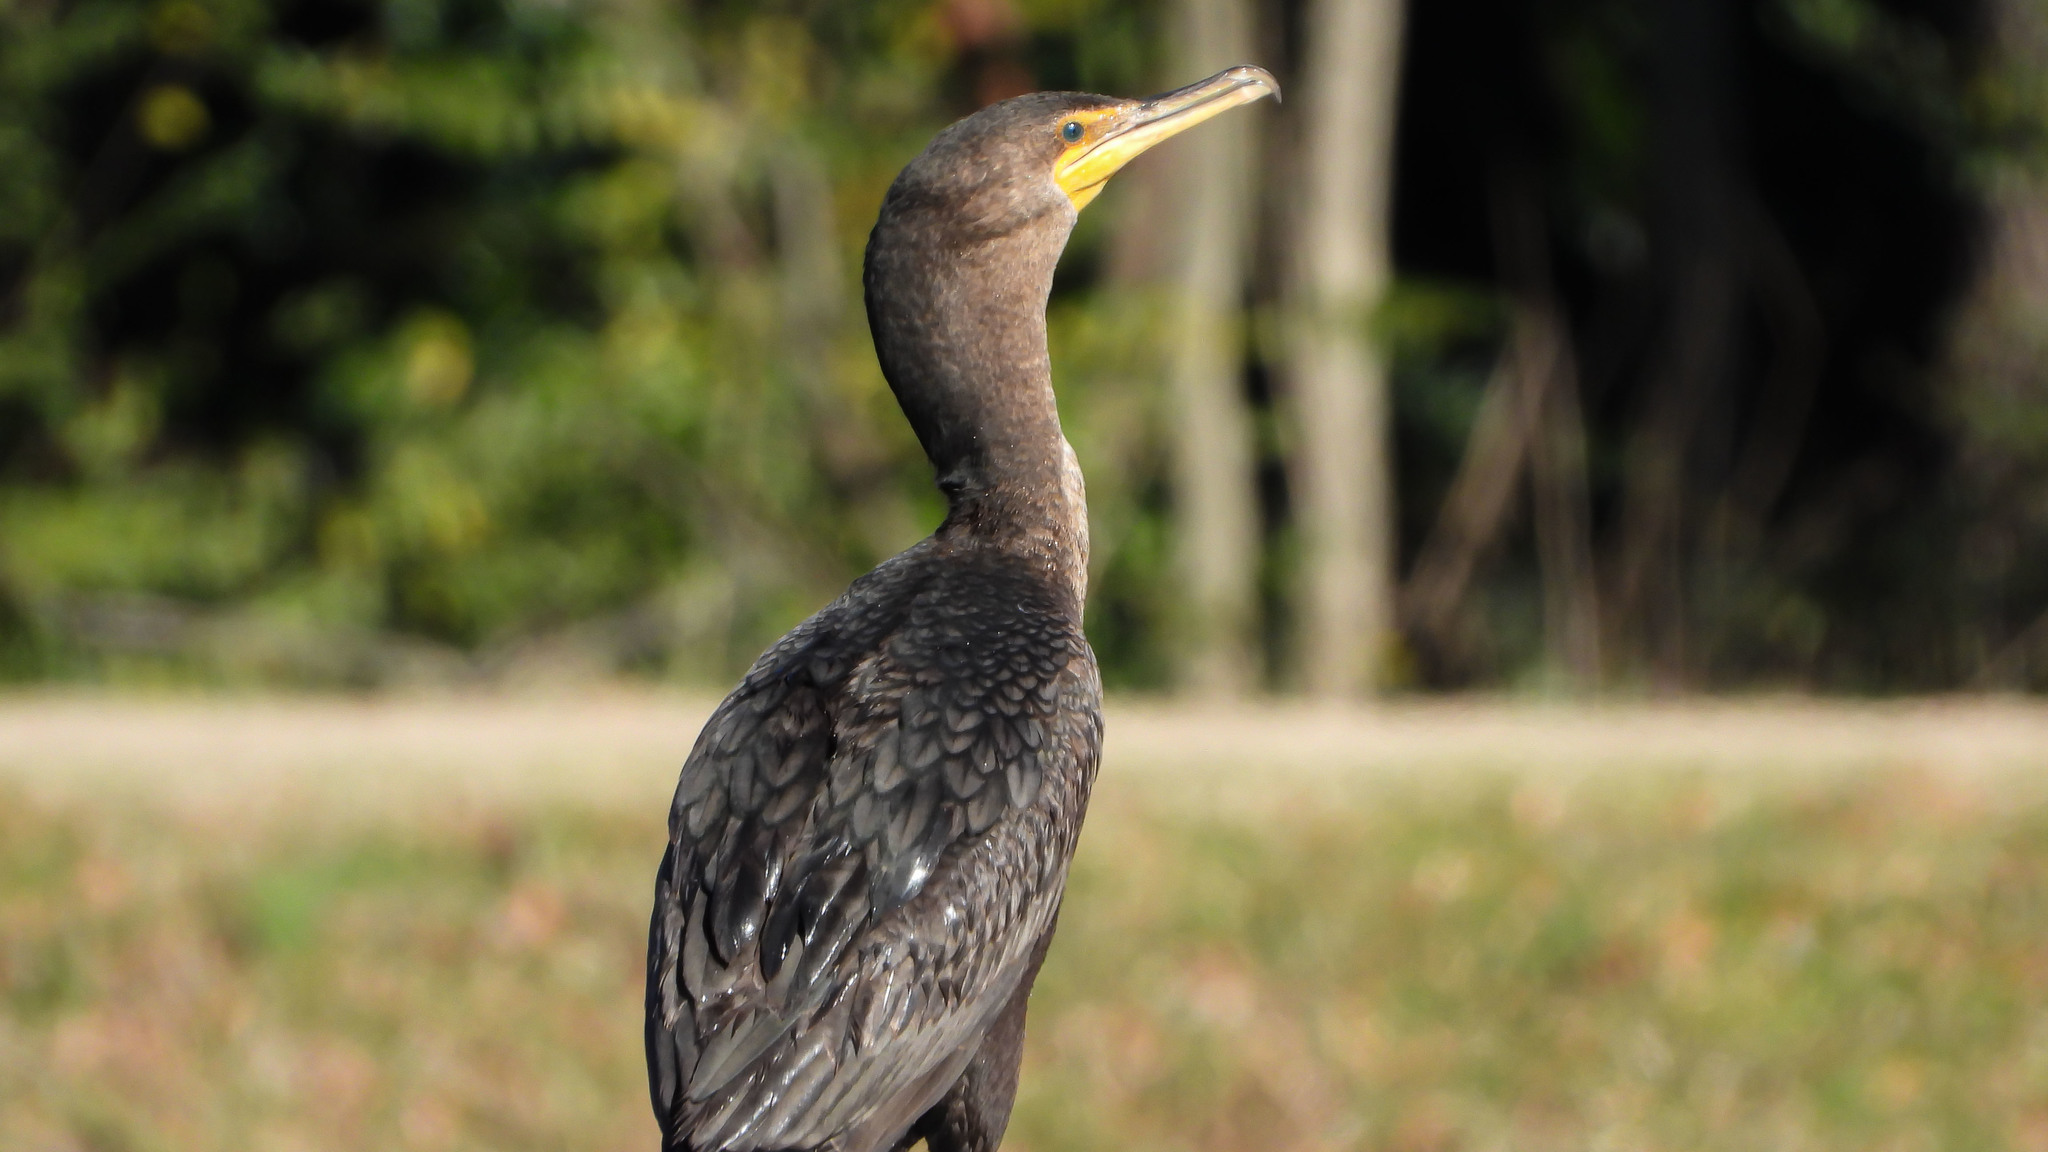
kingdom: Animalia
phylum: Chordata
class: Aves
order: Suliformes
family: Phalacrocoracidae
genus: Phalacrocorax
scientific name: Phalacrocorax auritus
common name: Double-crested cormorant
